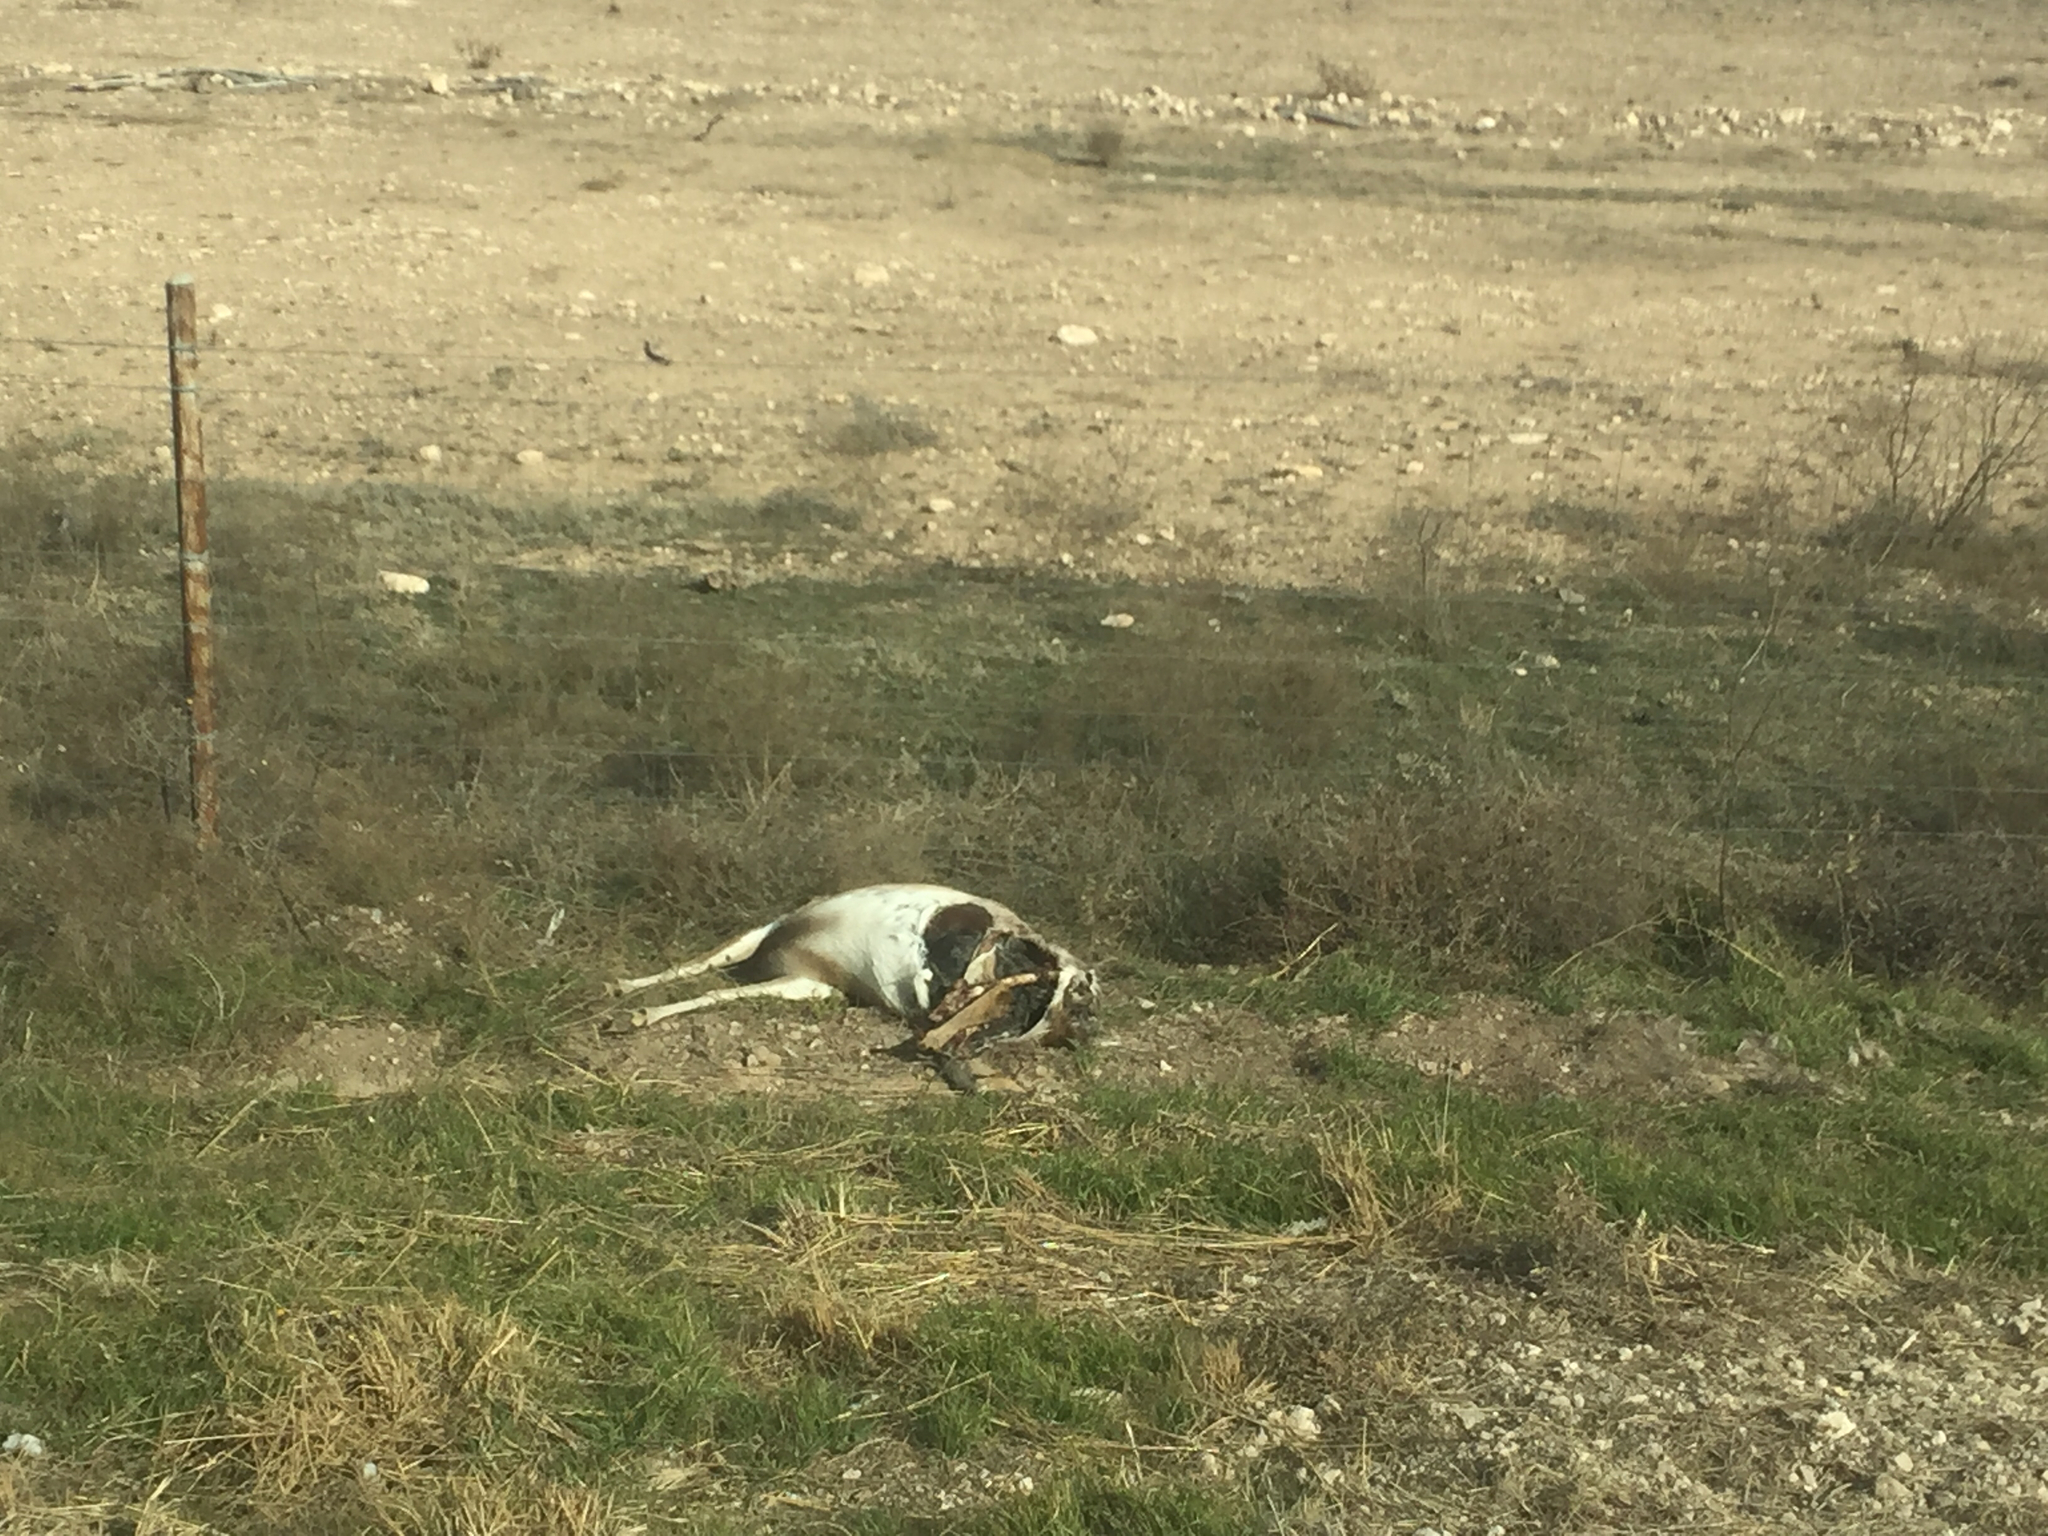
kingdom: Animalia
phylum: Chordata
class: Mammalia
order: Artiodactyla
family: Cervidae
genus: Odocoileus
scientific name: Odocoileus virginianus
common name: White-tailed deer
